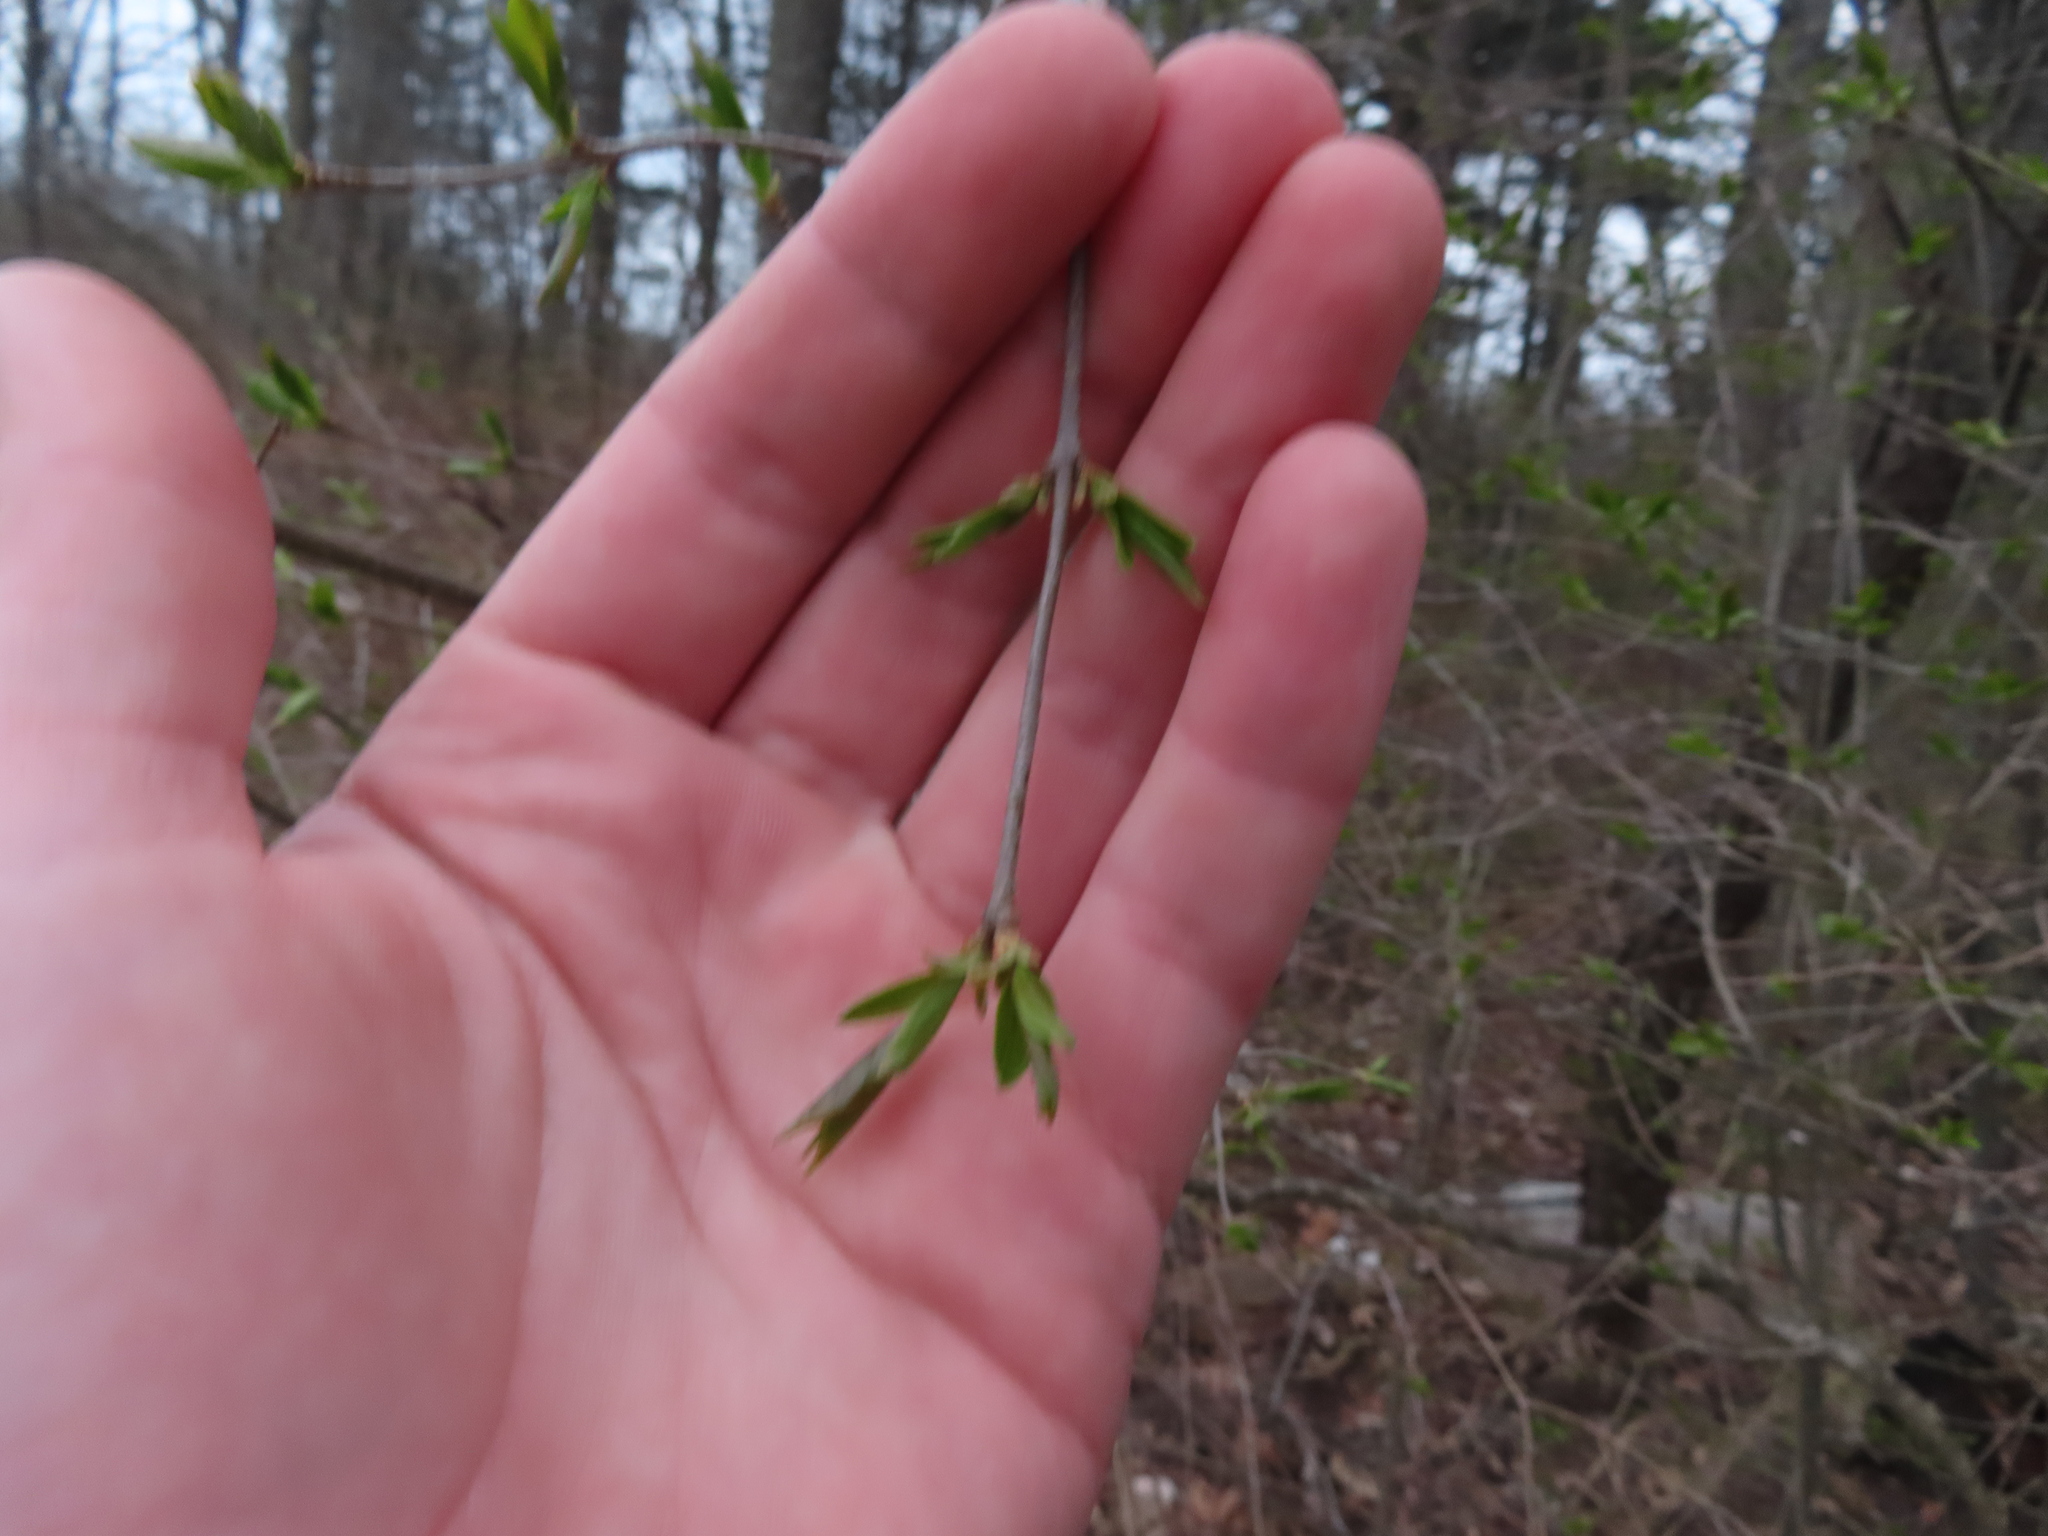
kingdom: Plantae
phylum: Tracheophyta
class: Magnoliopsida
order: Rosales
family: Rhamnaceae
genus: Rhamnus
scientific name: Rhamnus cathartica
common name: Common buckthorn
